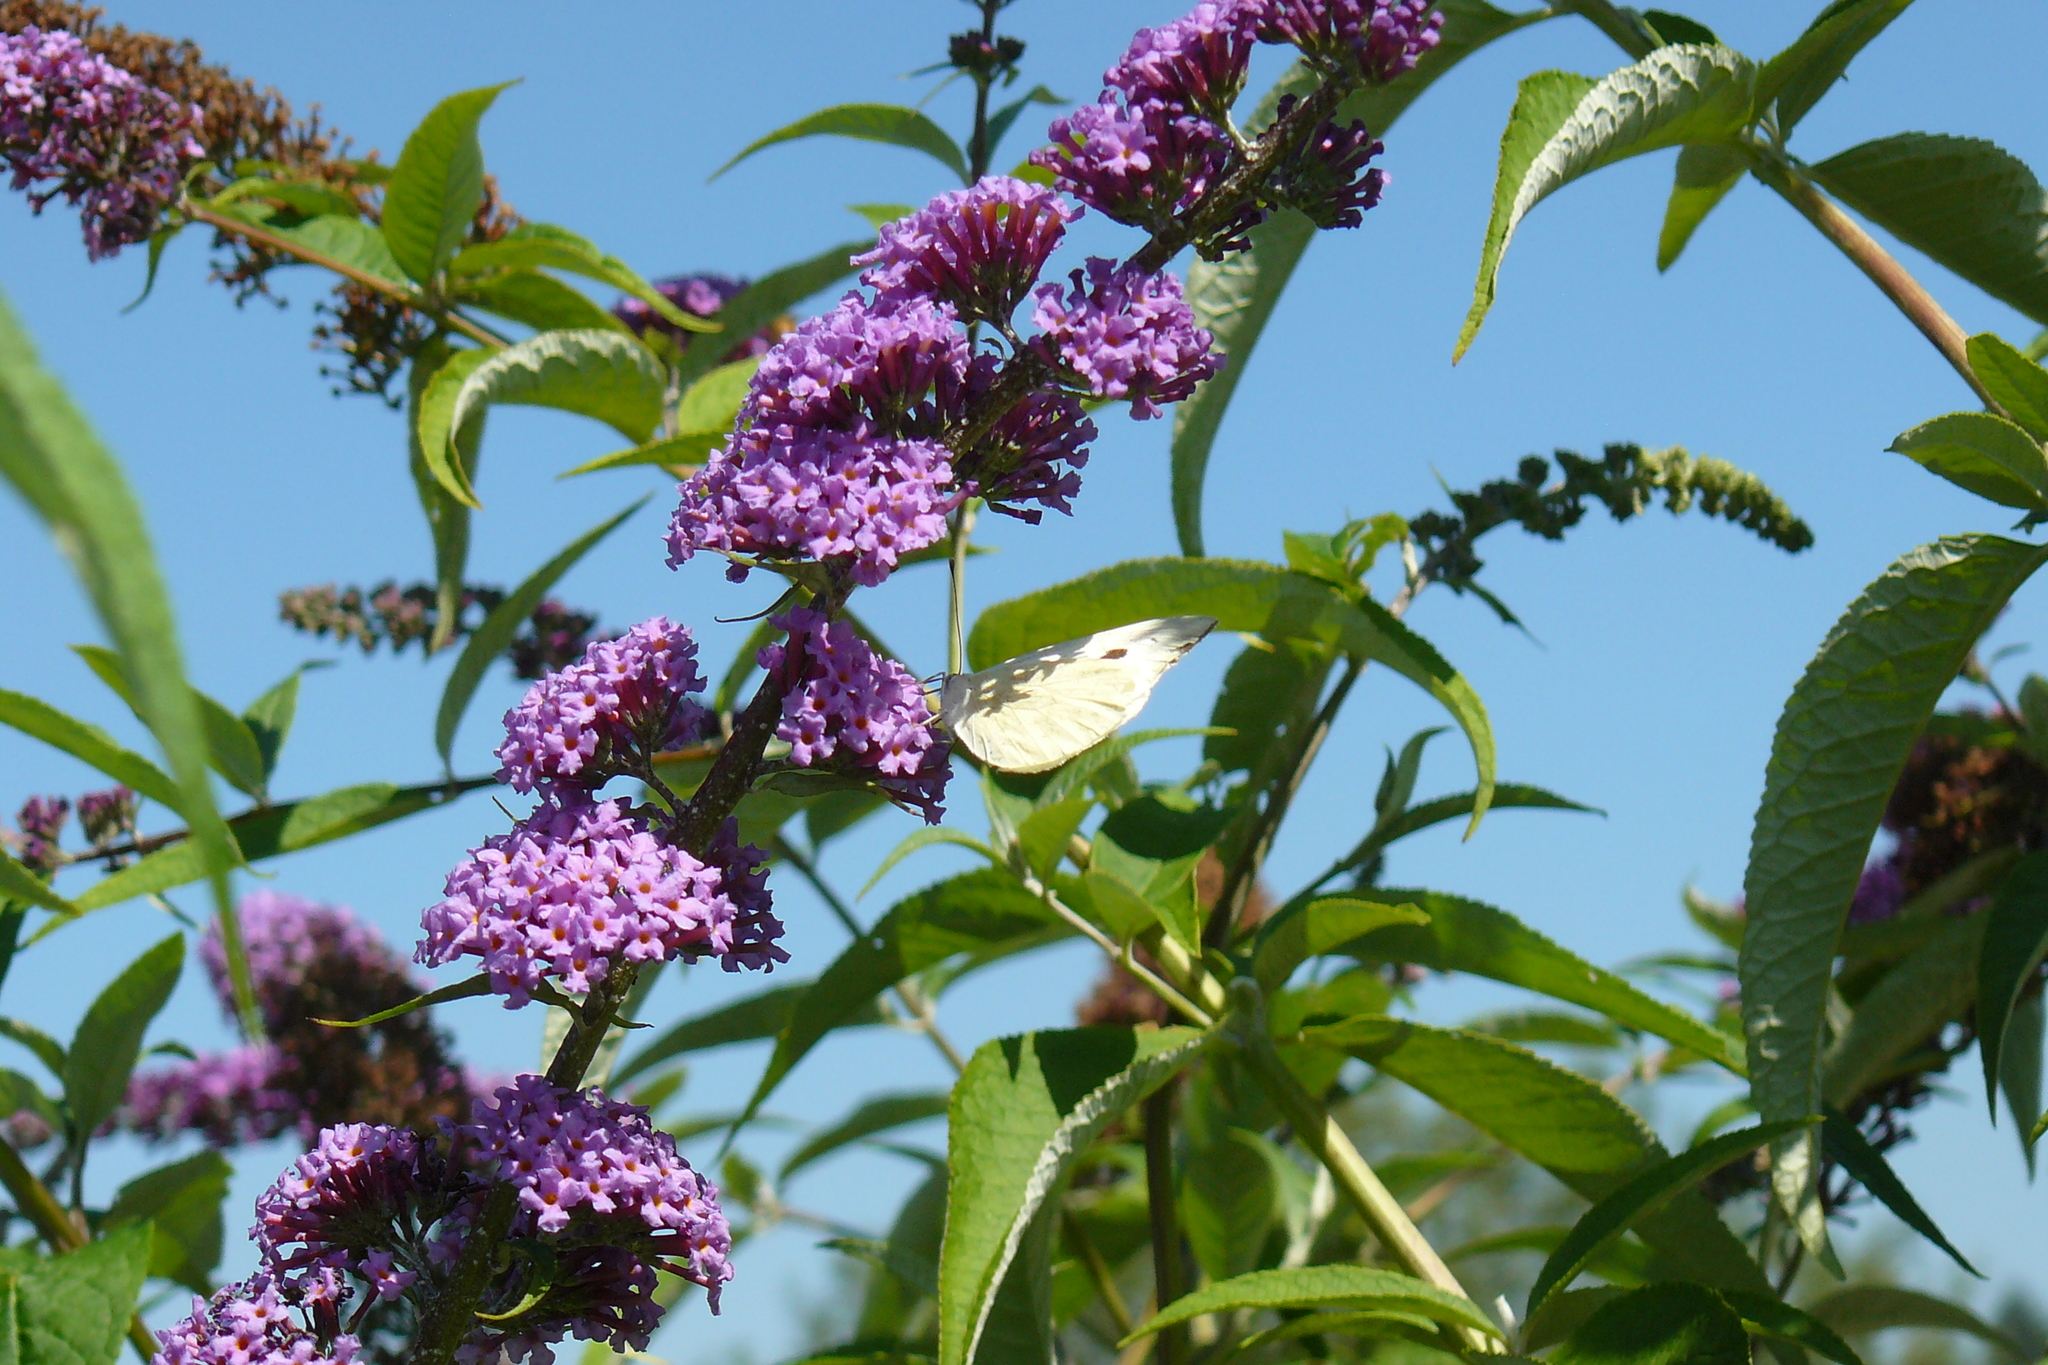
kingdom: Animalia
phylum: Arthropoda
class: Insecta
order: Lepidoptera
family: Pieridae
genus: Pieris
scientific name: Pieris brassicae
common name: Large white
